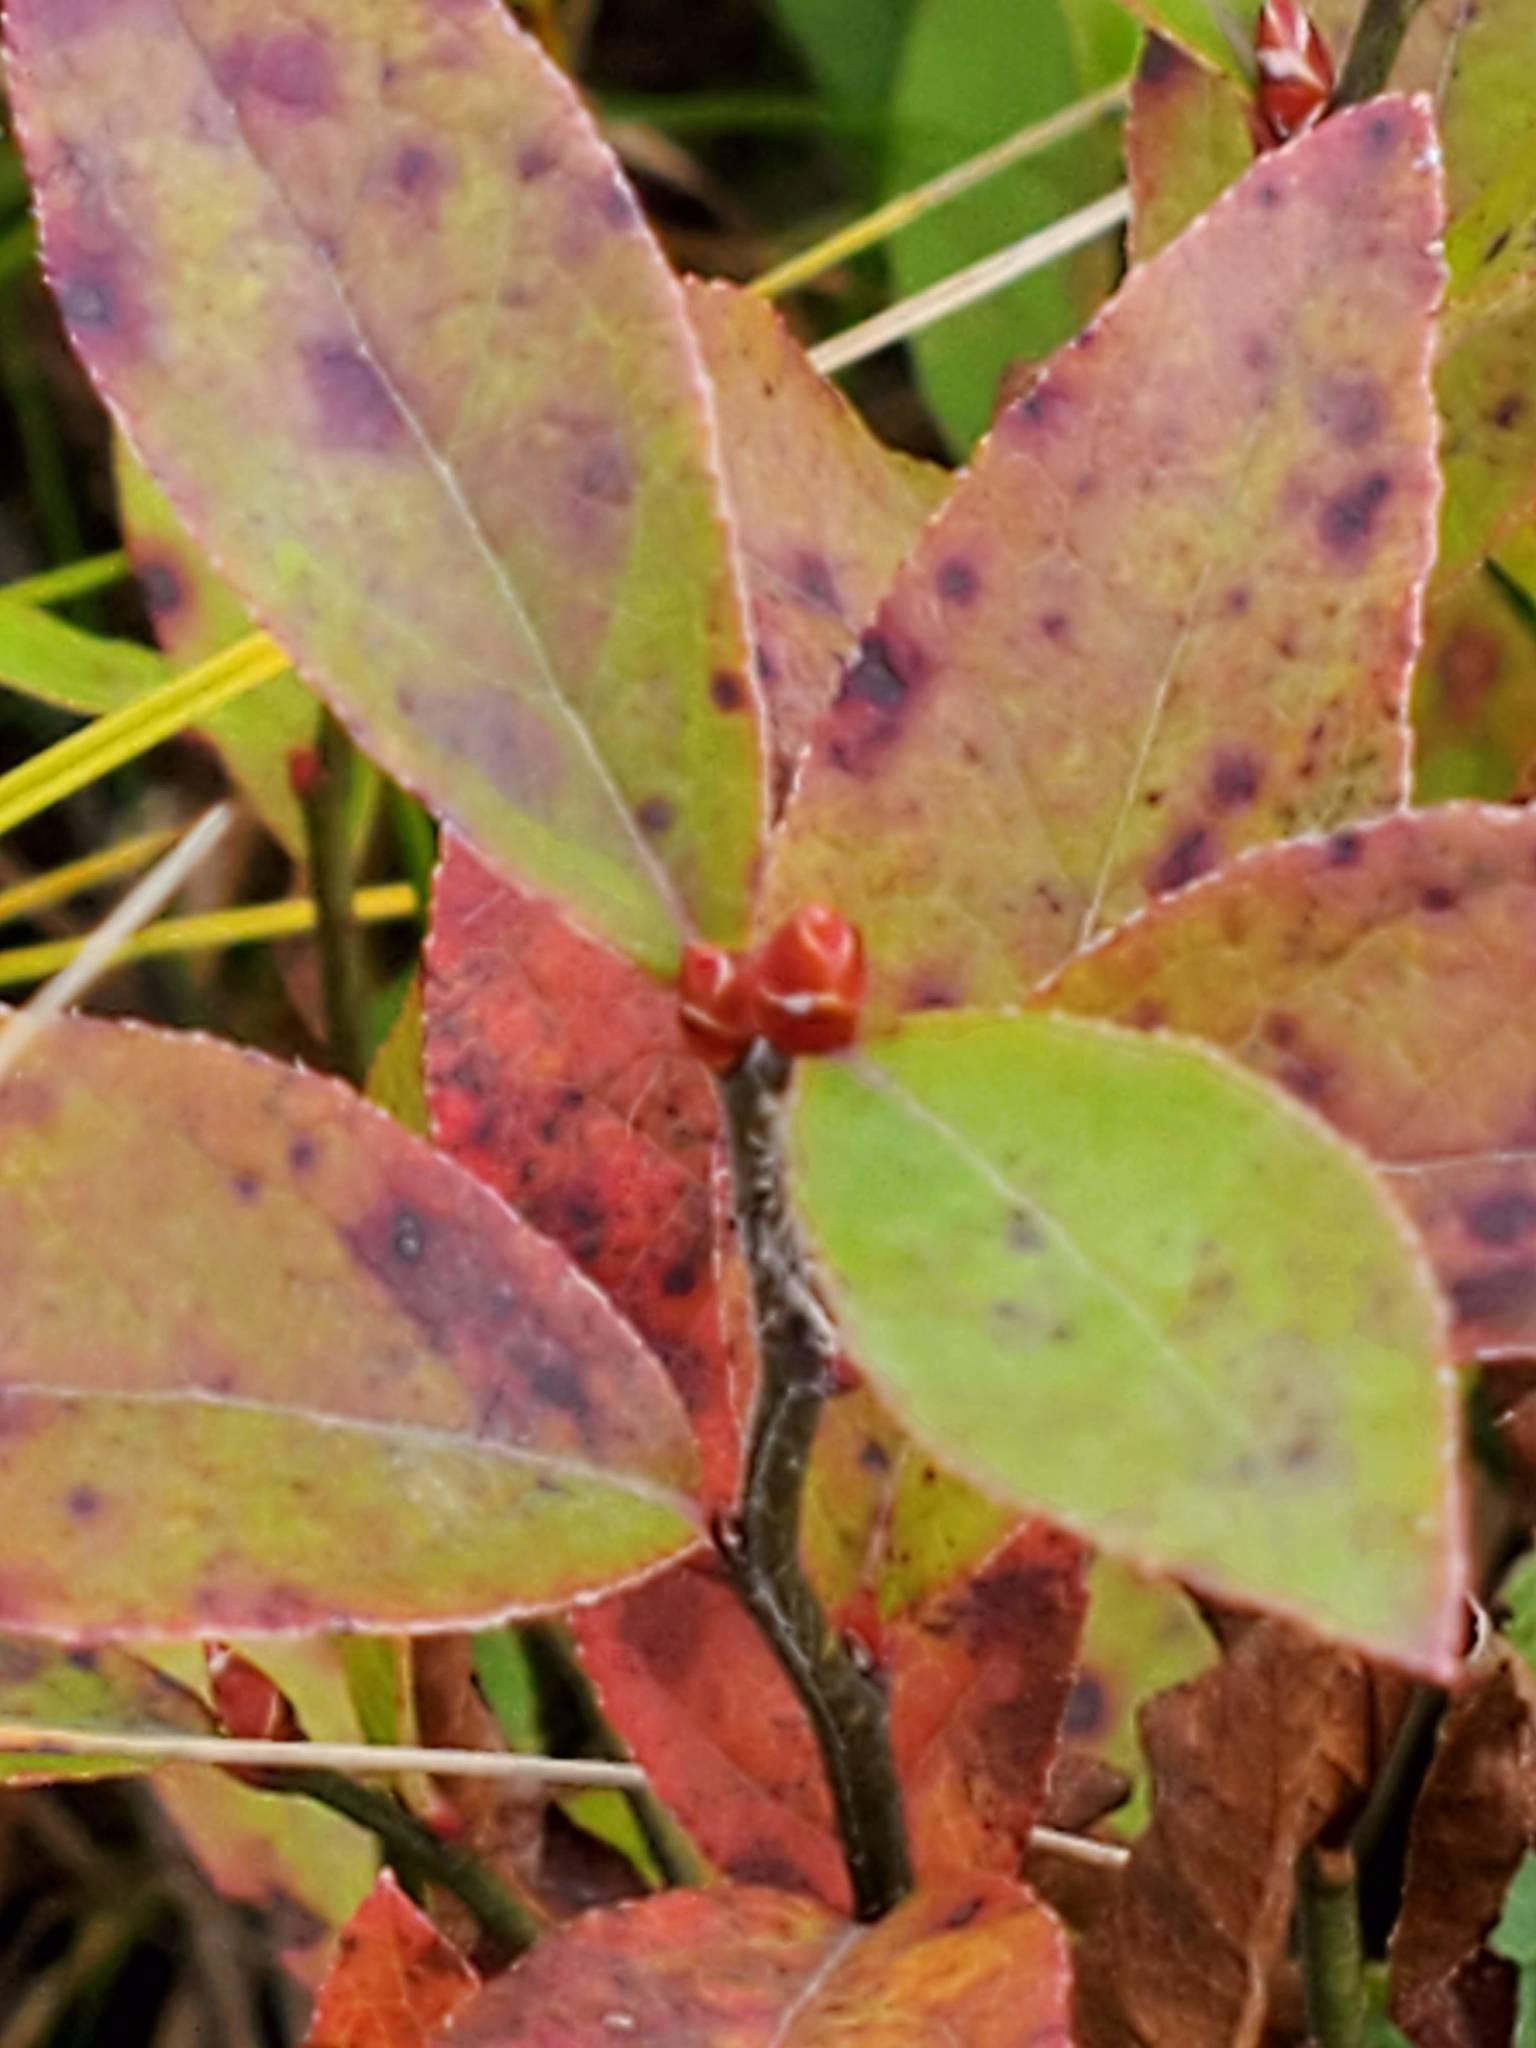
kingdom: Plantae
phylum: Tracheophyta
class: Magnoliopsida
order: Ericales
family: Ericaceae
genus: Vaccinium
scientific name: Vaccinium angustifolium
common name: Early lowbush blueberry
